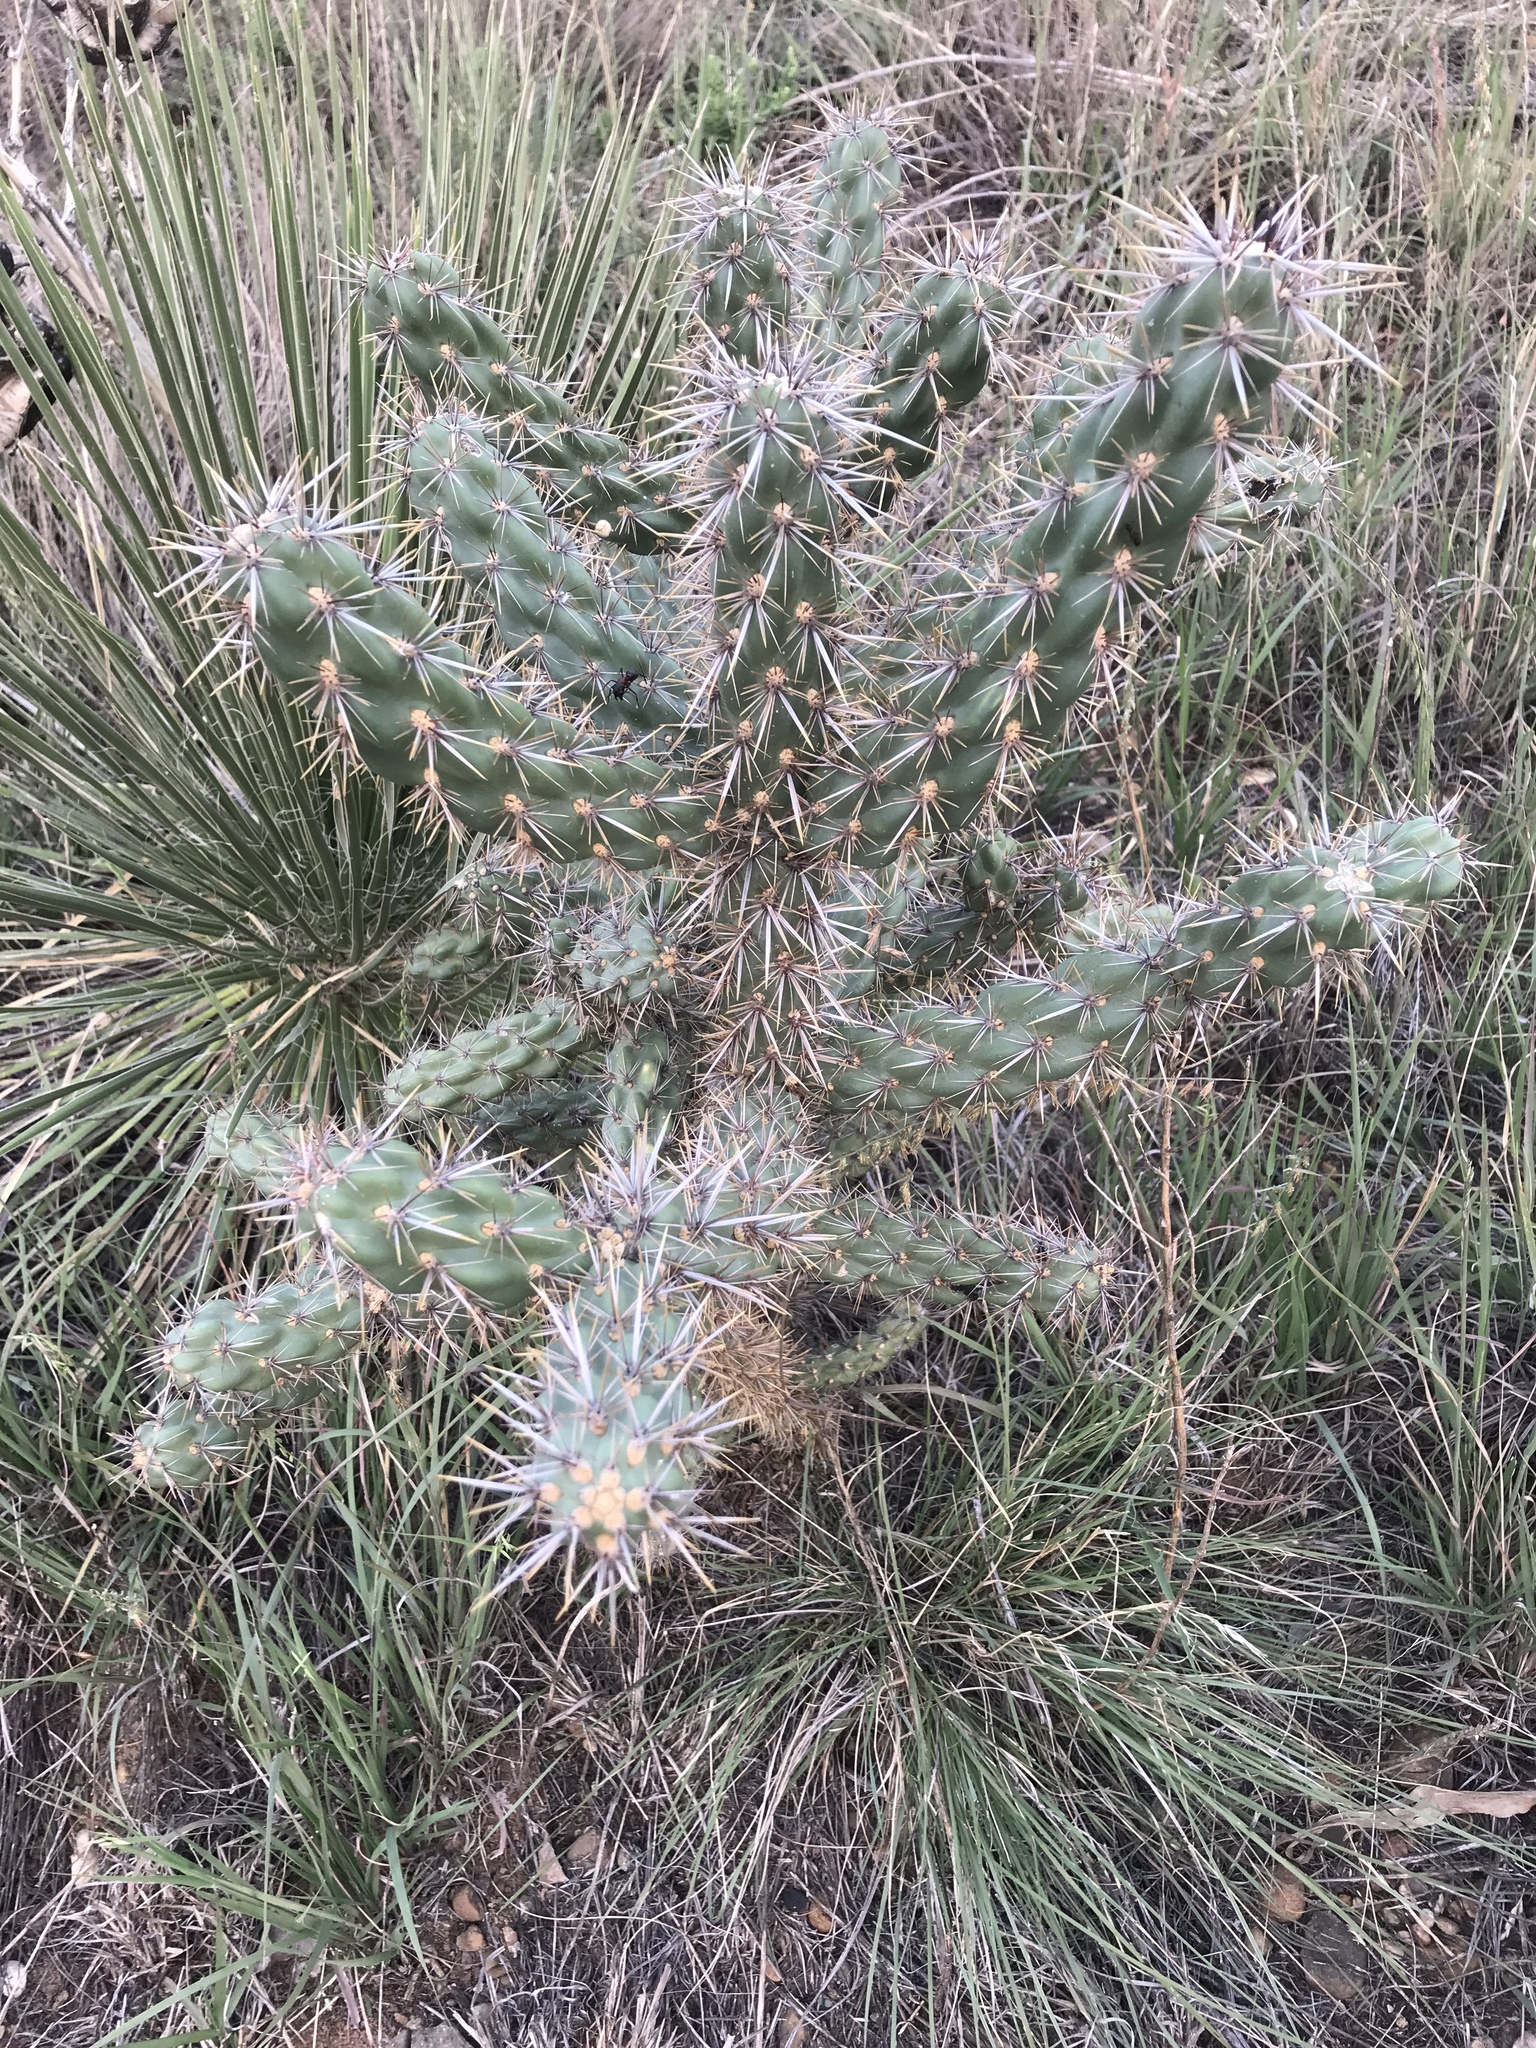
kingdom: Plantae
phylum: Tracheophyta
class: Magnoliopsida
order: Caryophyllales
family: Cactaceae
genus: Cylindropuntia
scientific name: Cylindropuntia imbricata
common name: Candelabrum cactus
